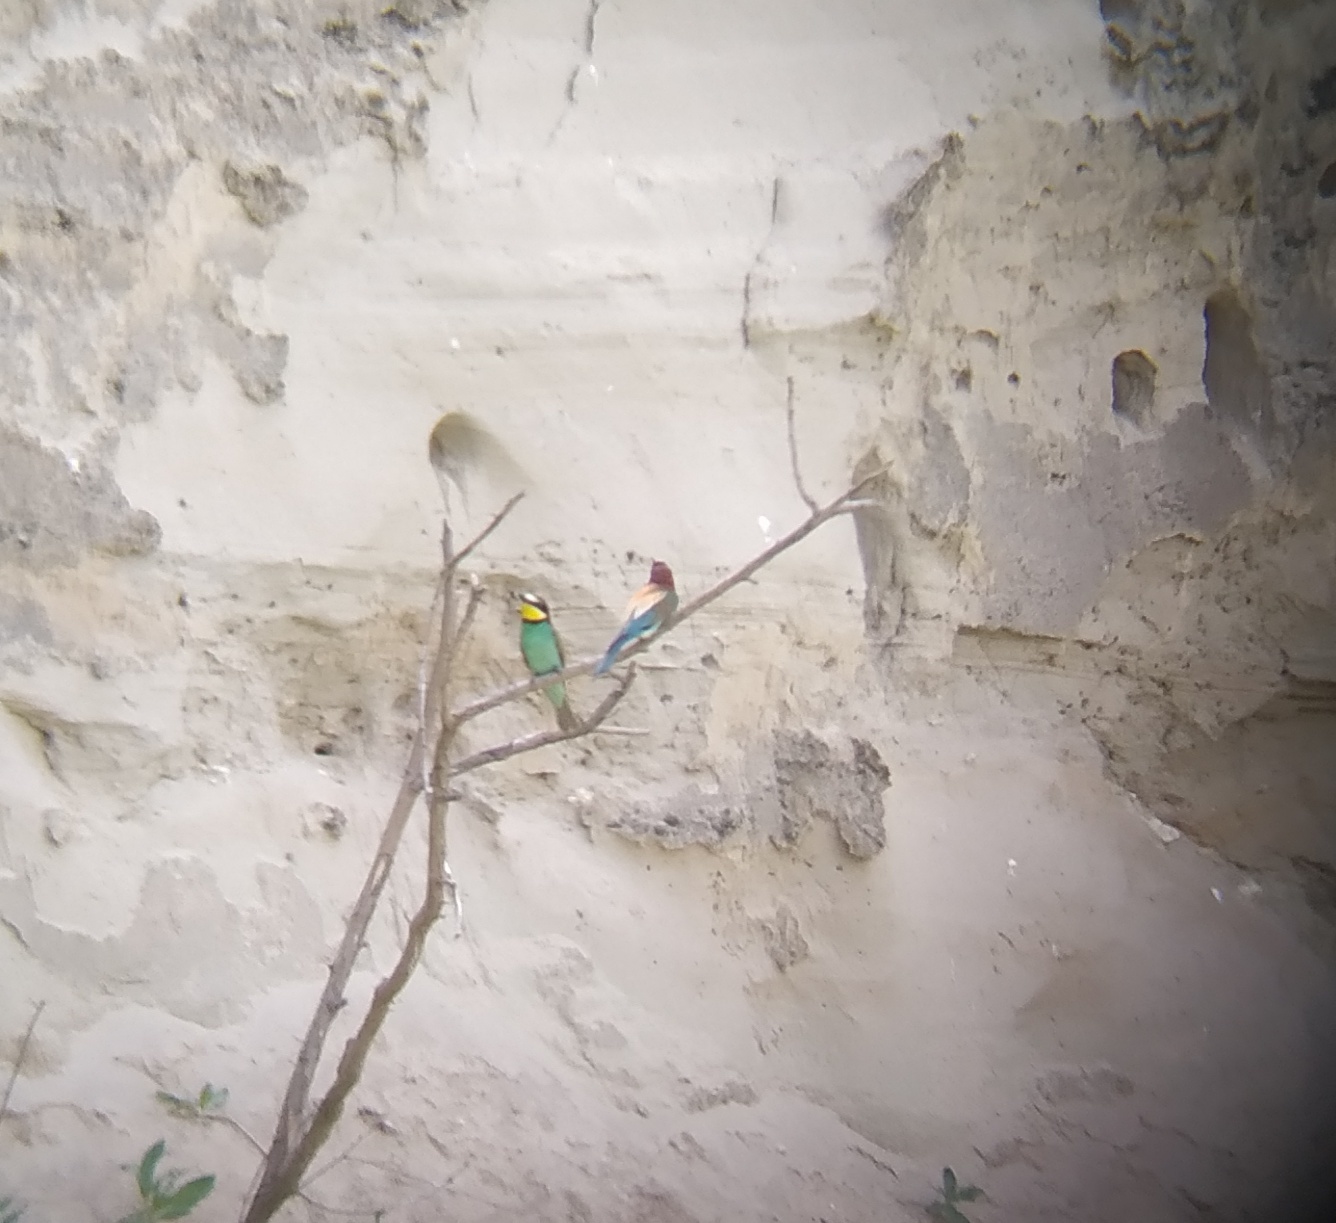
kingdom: Animalia
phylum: Chordata
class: Aves
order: Coraciiformes
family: Meropidae
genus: Merops
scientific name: Merops apiaster
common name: European bee-eater
